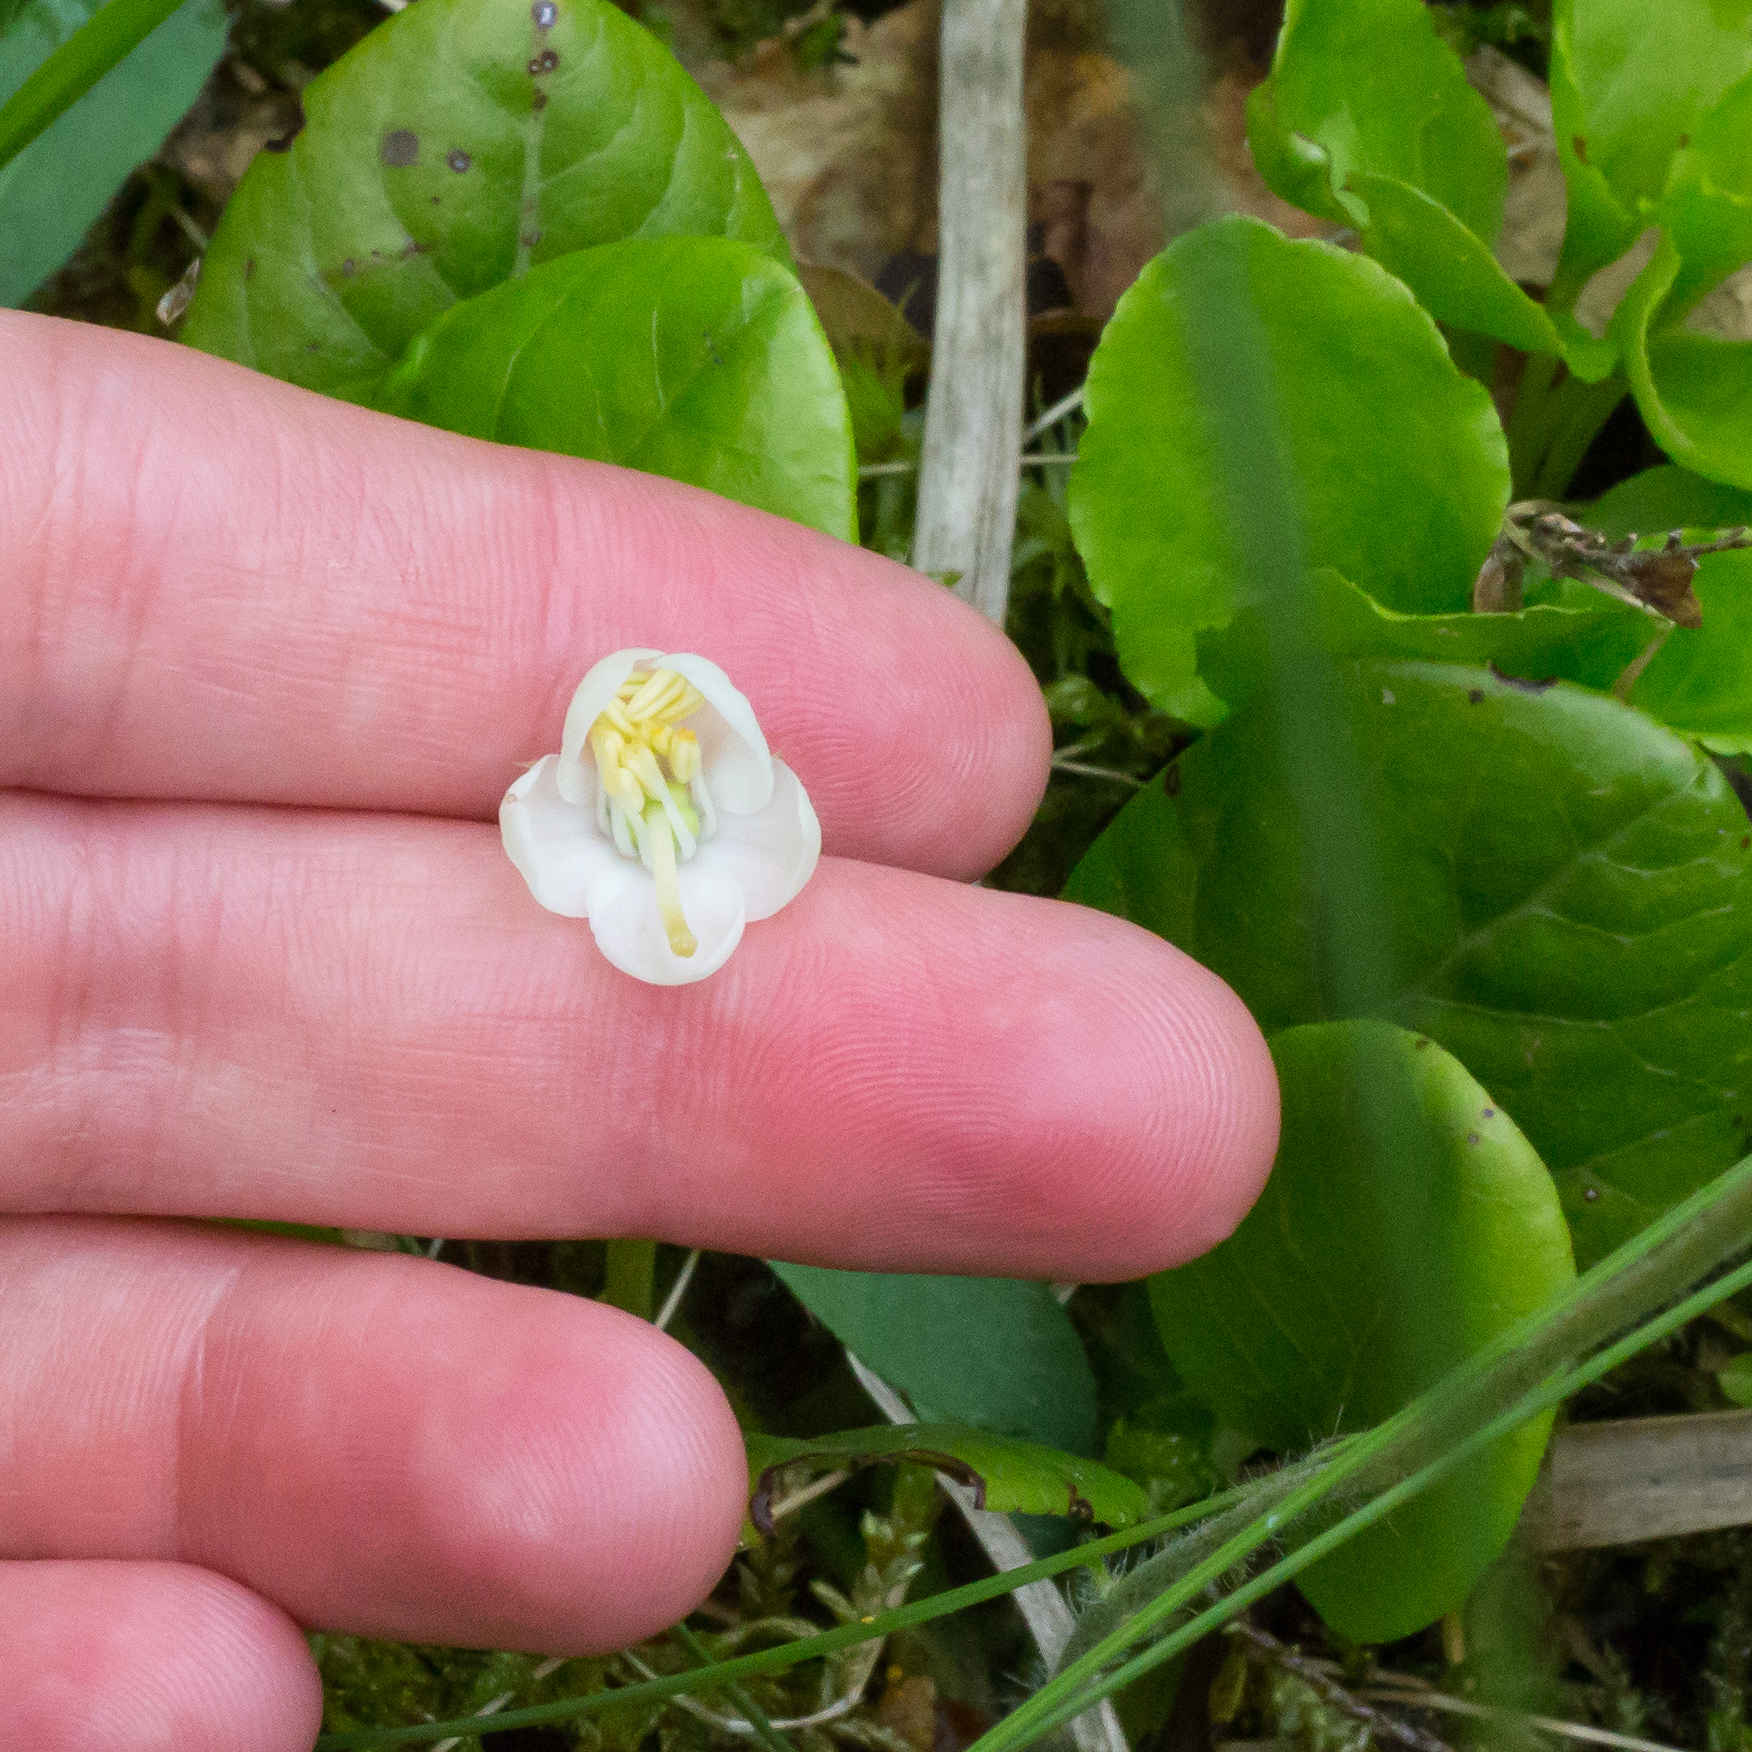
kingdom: Plantae
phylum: Tracheophyta
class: Magnoliopsida
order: Ericales
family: Ericaceae
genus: Pyrola
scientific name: Pyrola rotundifolia
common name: Round-leaved wintergreen
